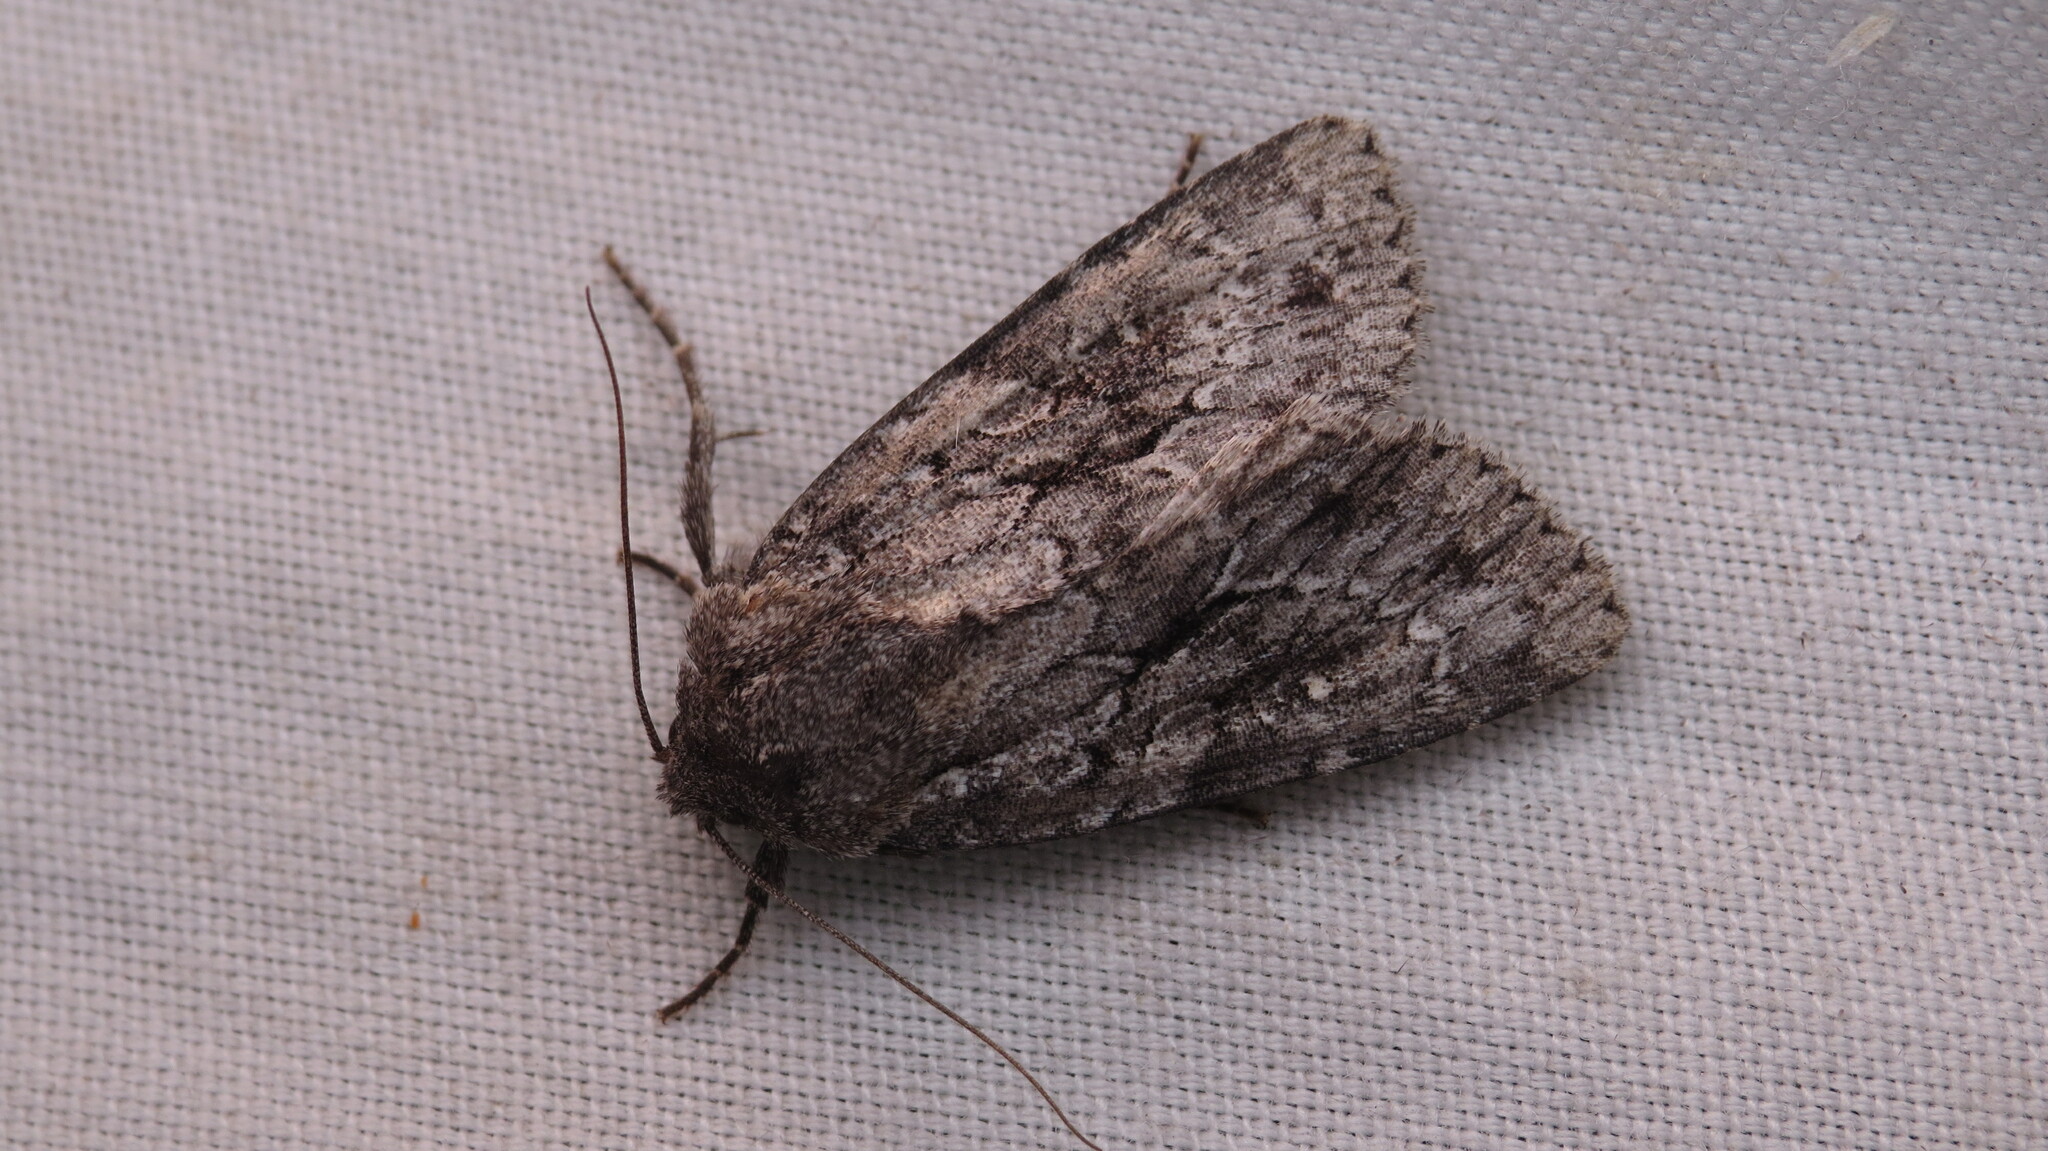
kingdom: Animalia
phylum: Arthropoda
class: Insecta
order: Lepidoptera
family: Noctuidae
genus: Sutyna
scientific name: Sutyna privata
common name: Private sallow
